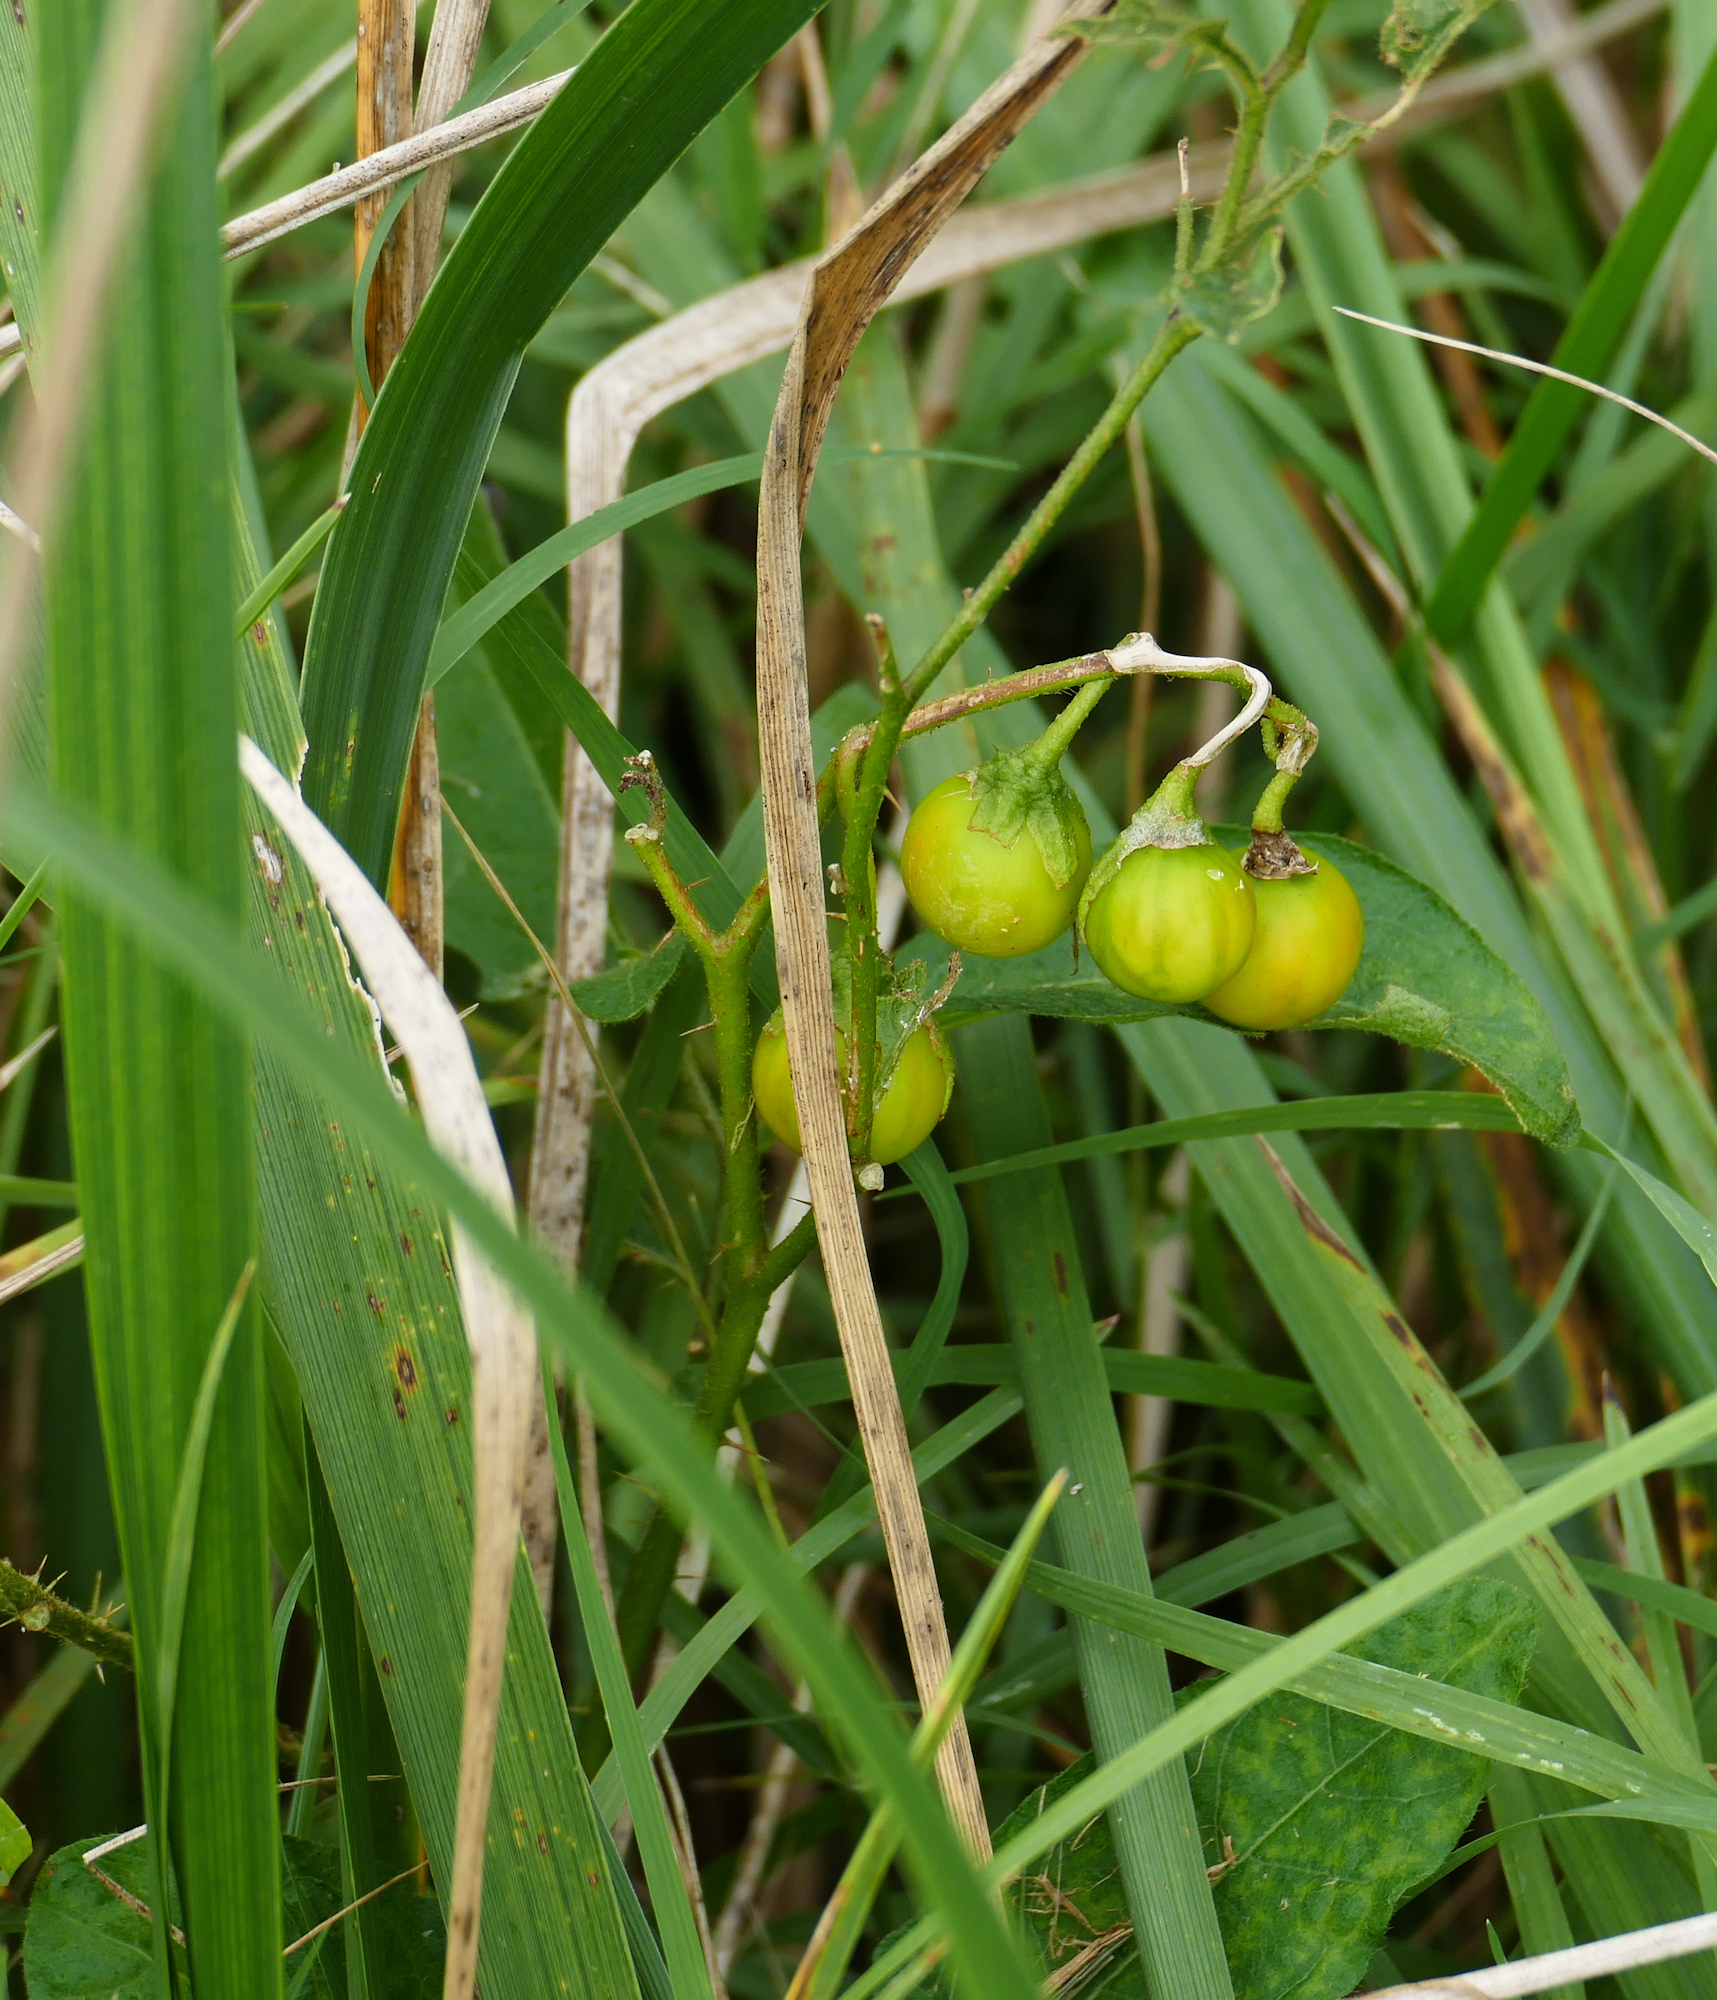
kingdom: Plantae
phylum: Tracheophyta
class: Magnoliopsida
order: Solanales
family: Solanaceae
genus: Solanum
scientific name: Solanum carolinense
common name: Horse-nettle
